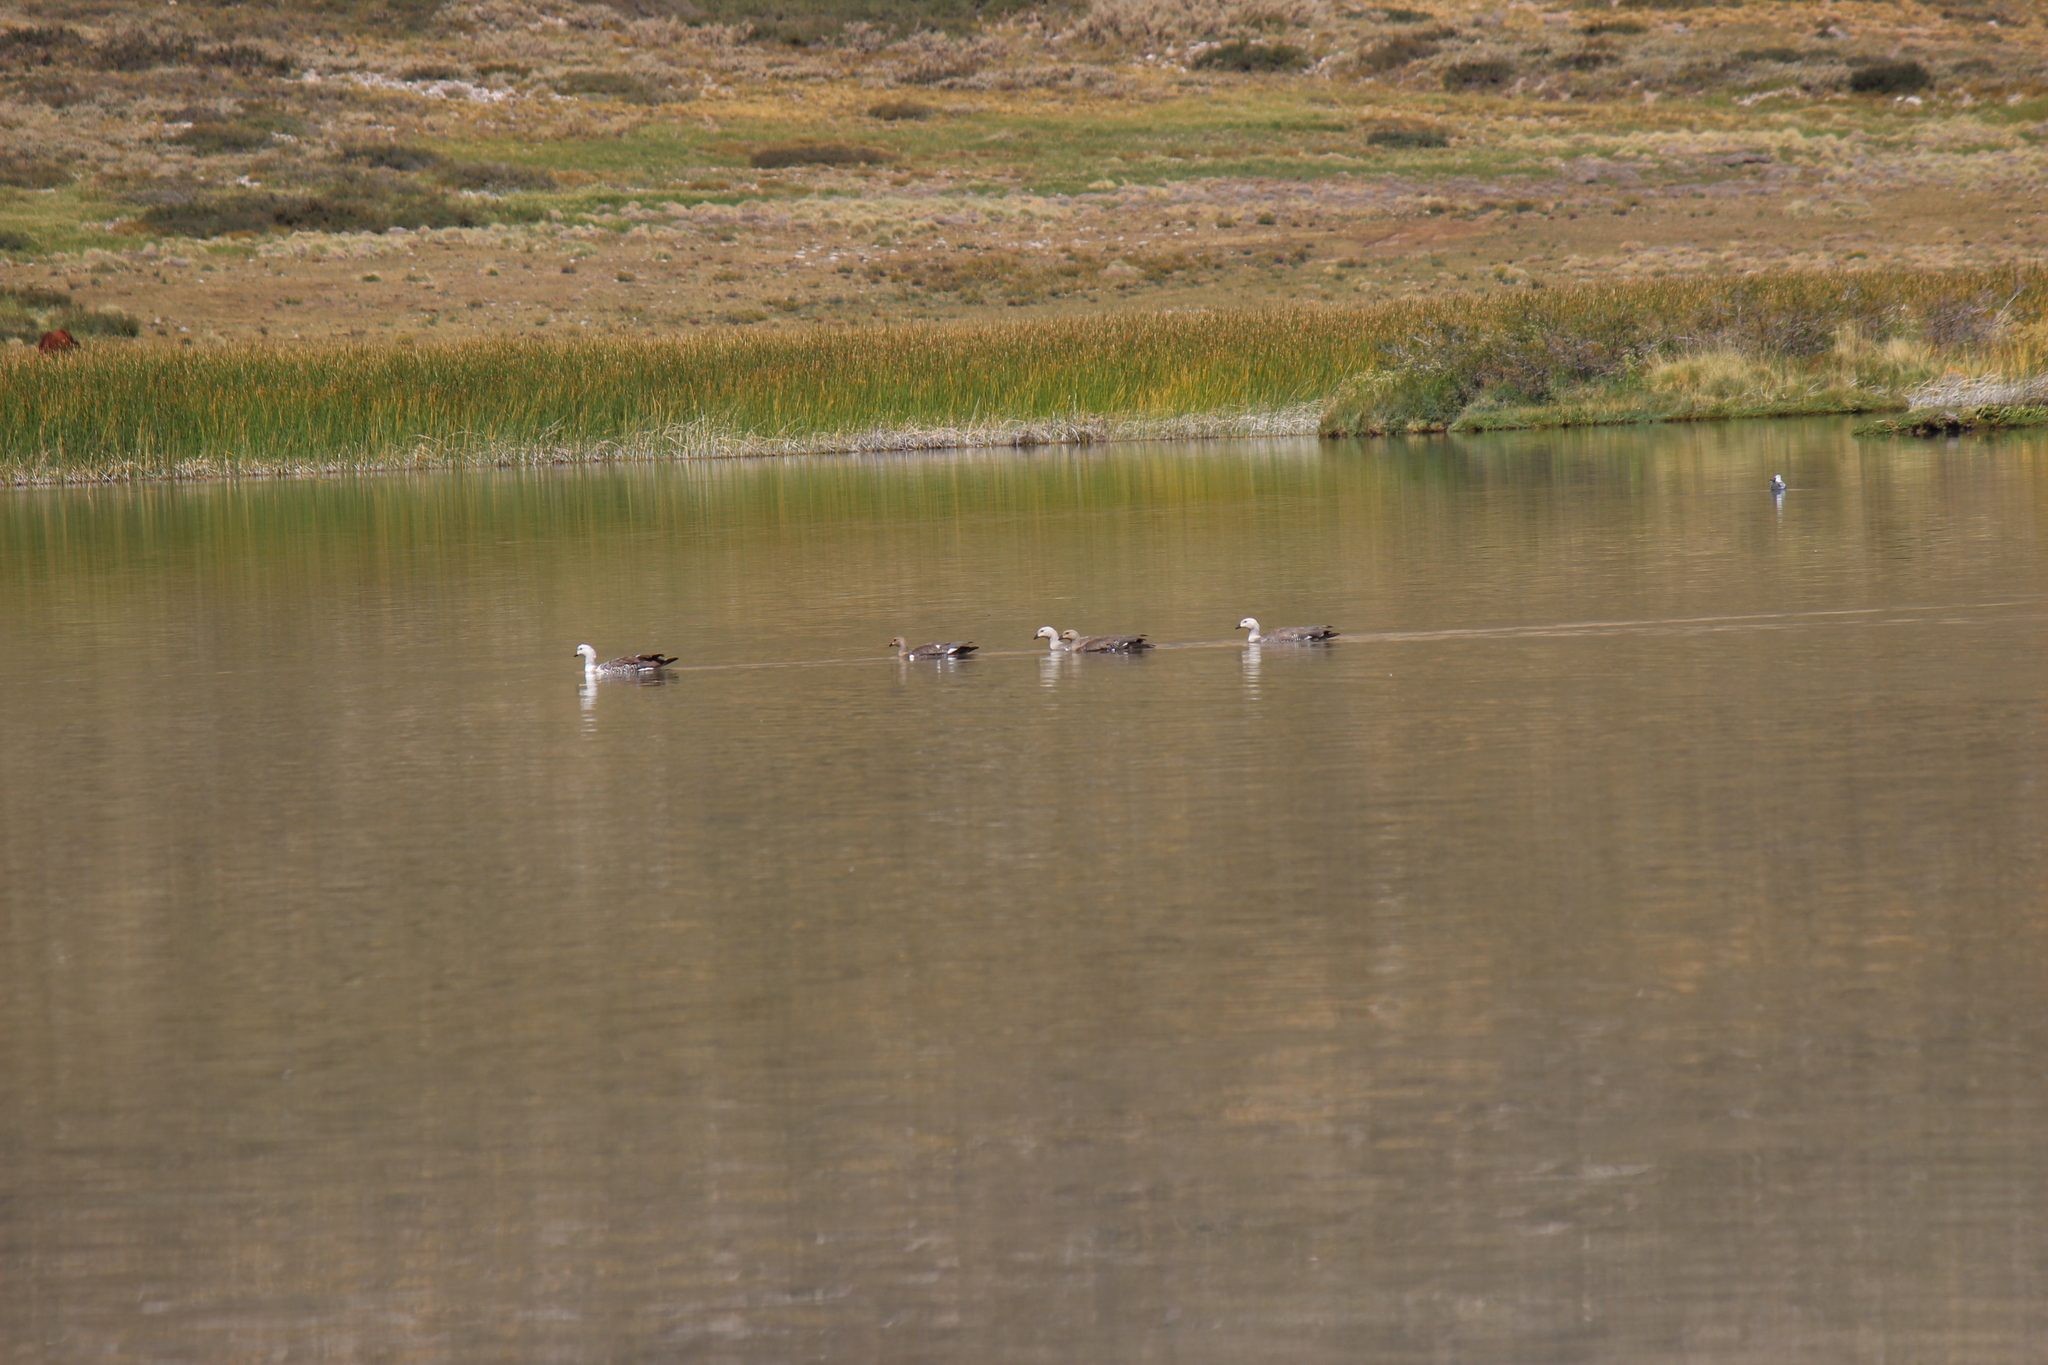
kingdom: Animalia
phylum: Chordata
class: Aves
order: Anseriformes
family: Anatidae
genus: Chloephaga
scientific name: Chloephaga picta
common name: Upland goose
